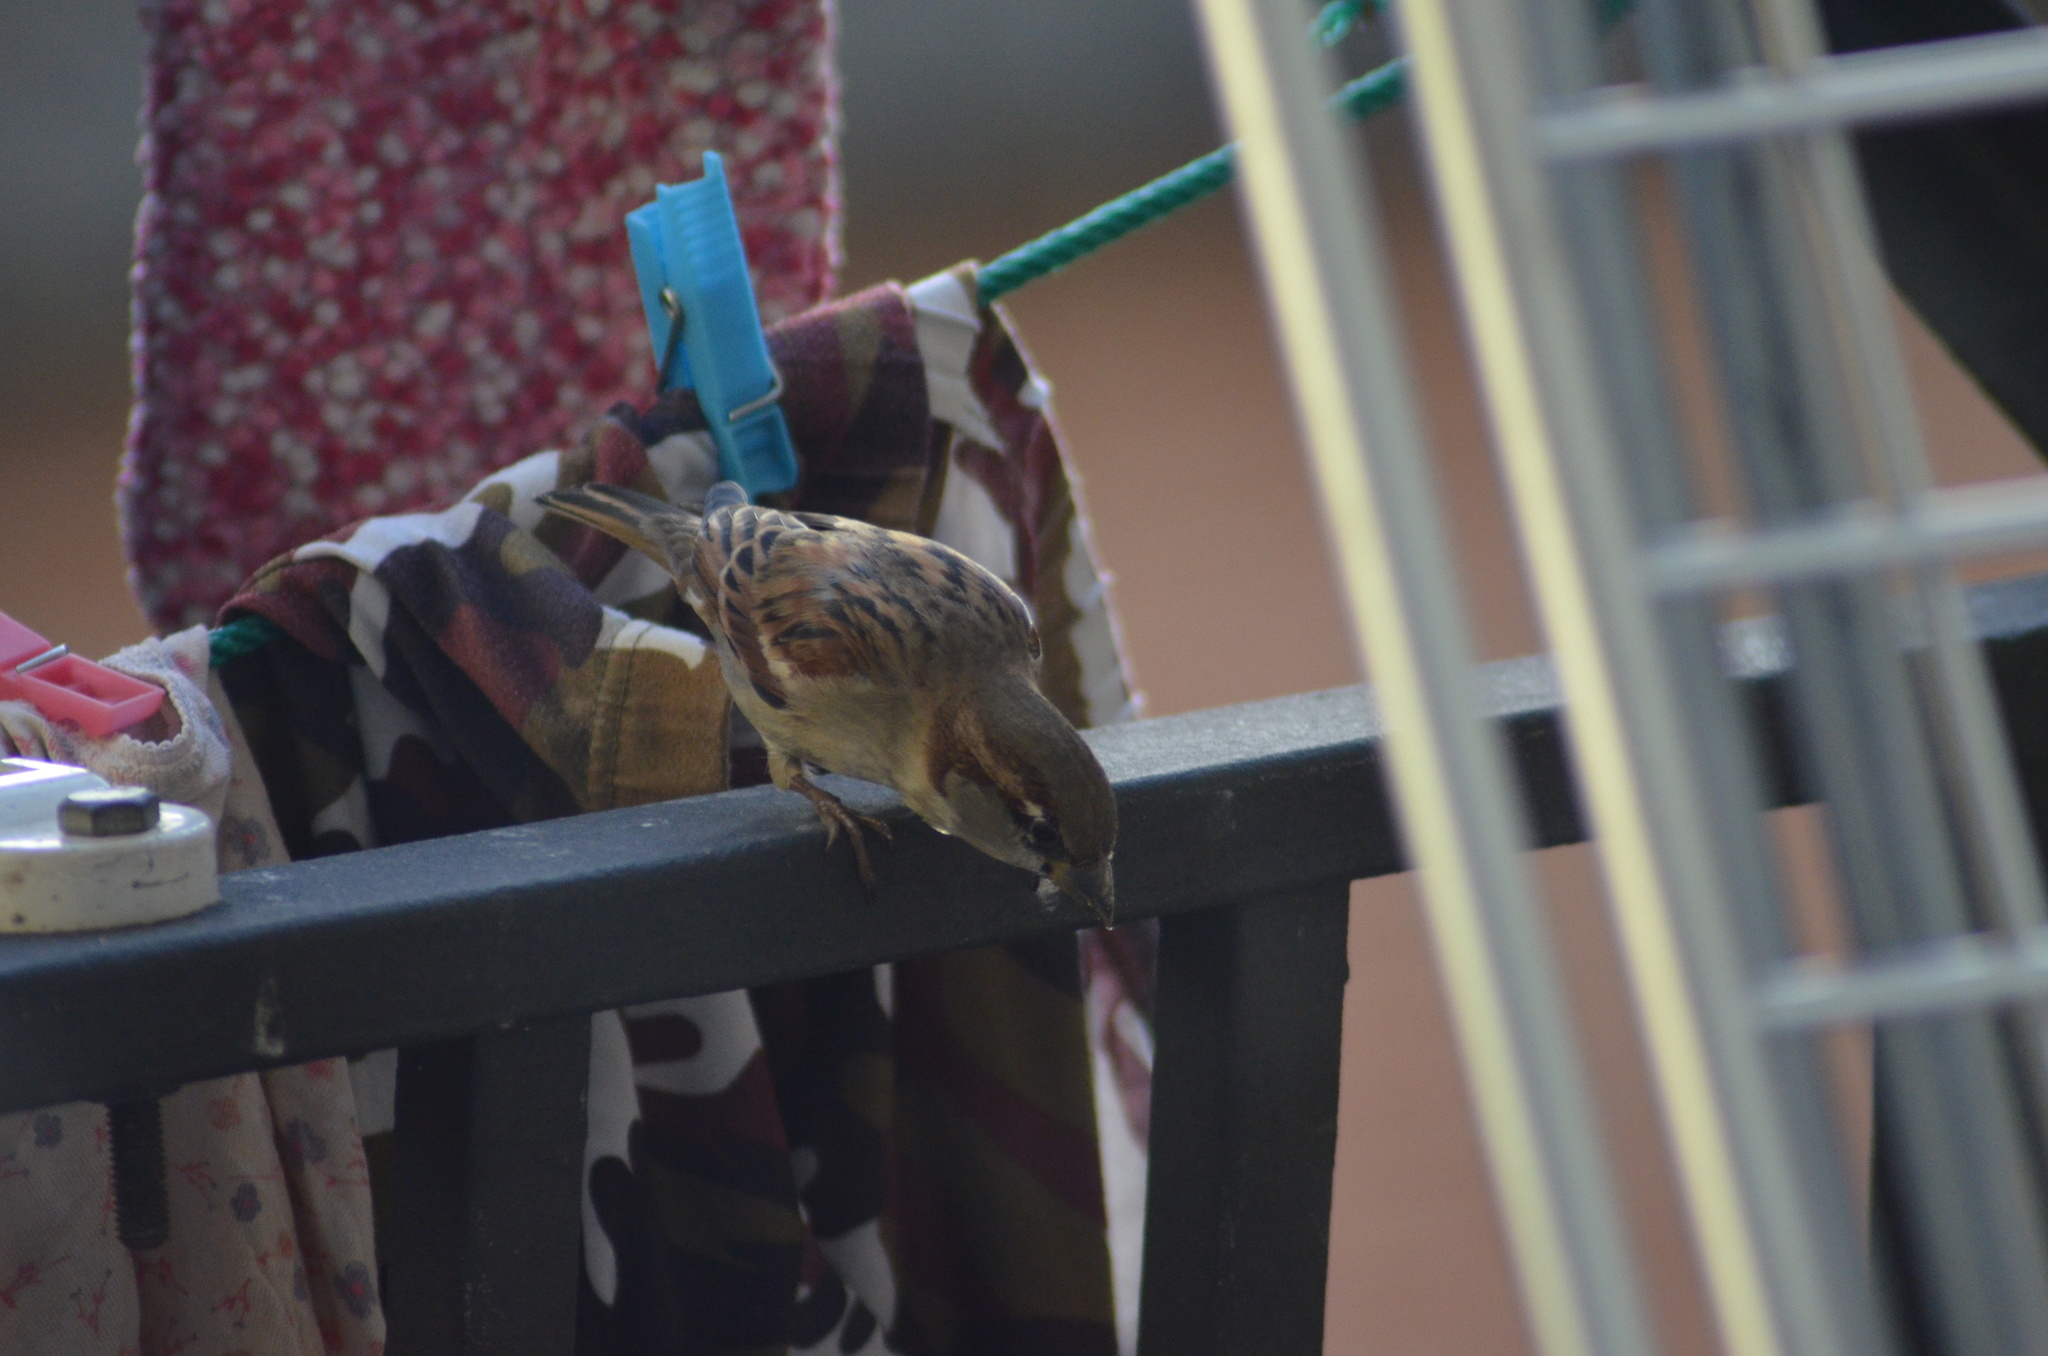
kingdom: Animalia
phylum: Chordata
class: Aves
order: Passeriformes
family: Passeridae
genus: Passer
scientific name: Passer domesticus
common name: House sparrow
